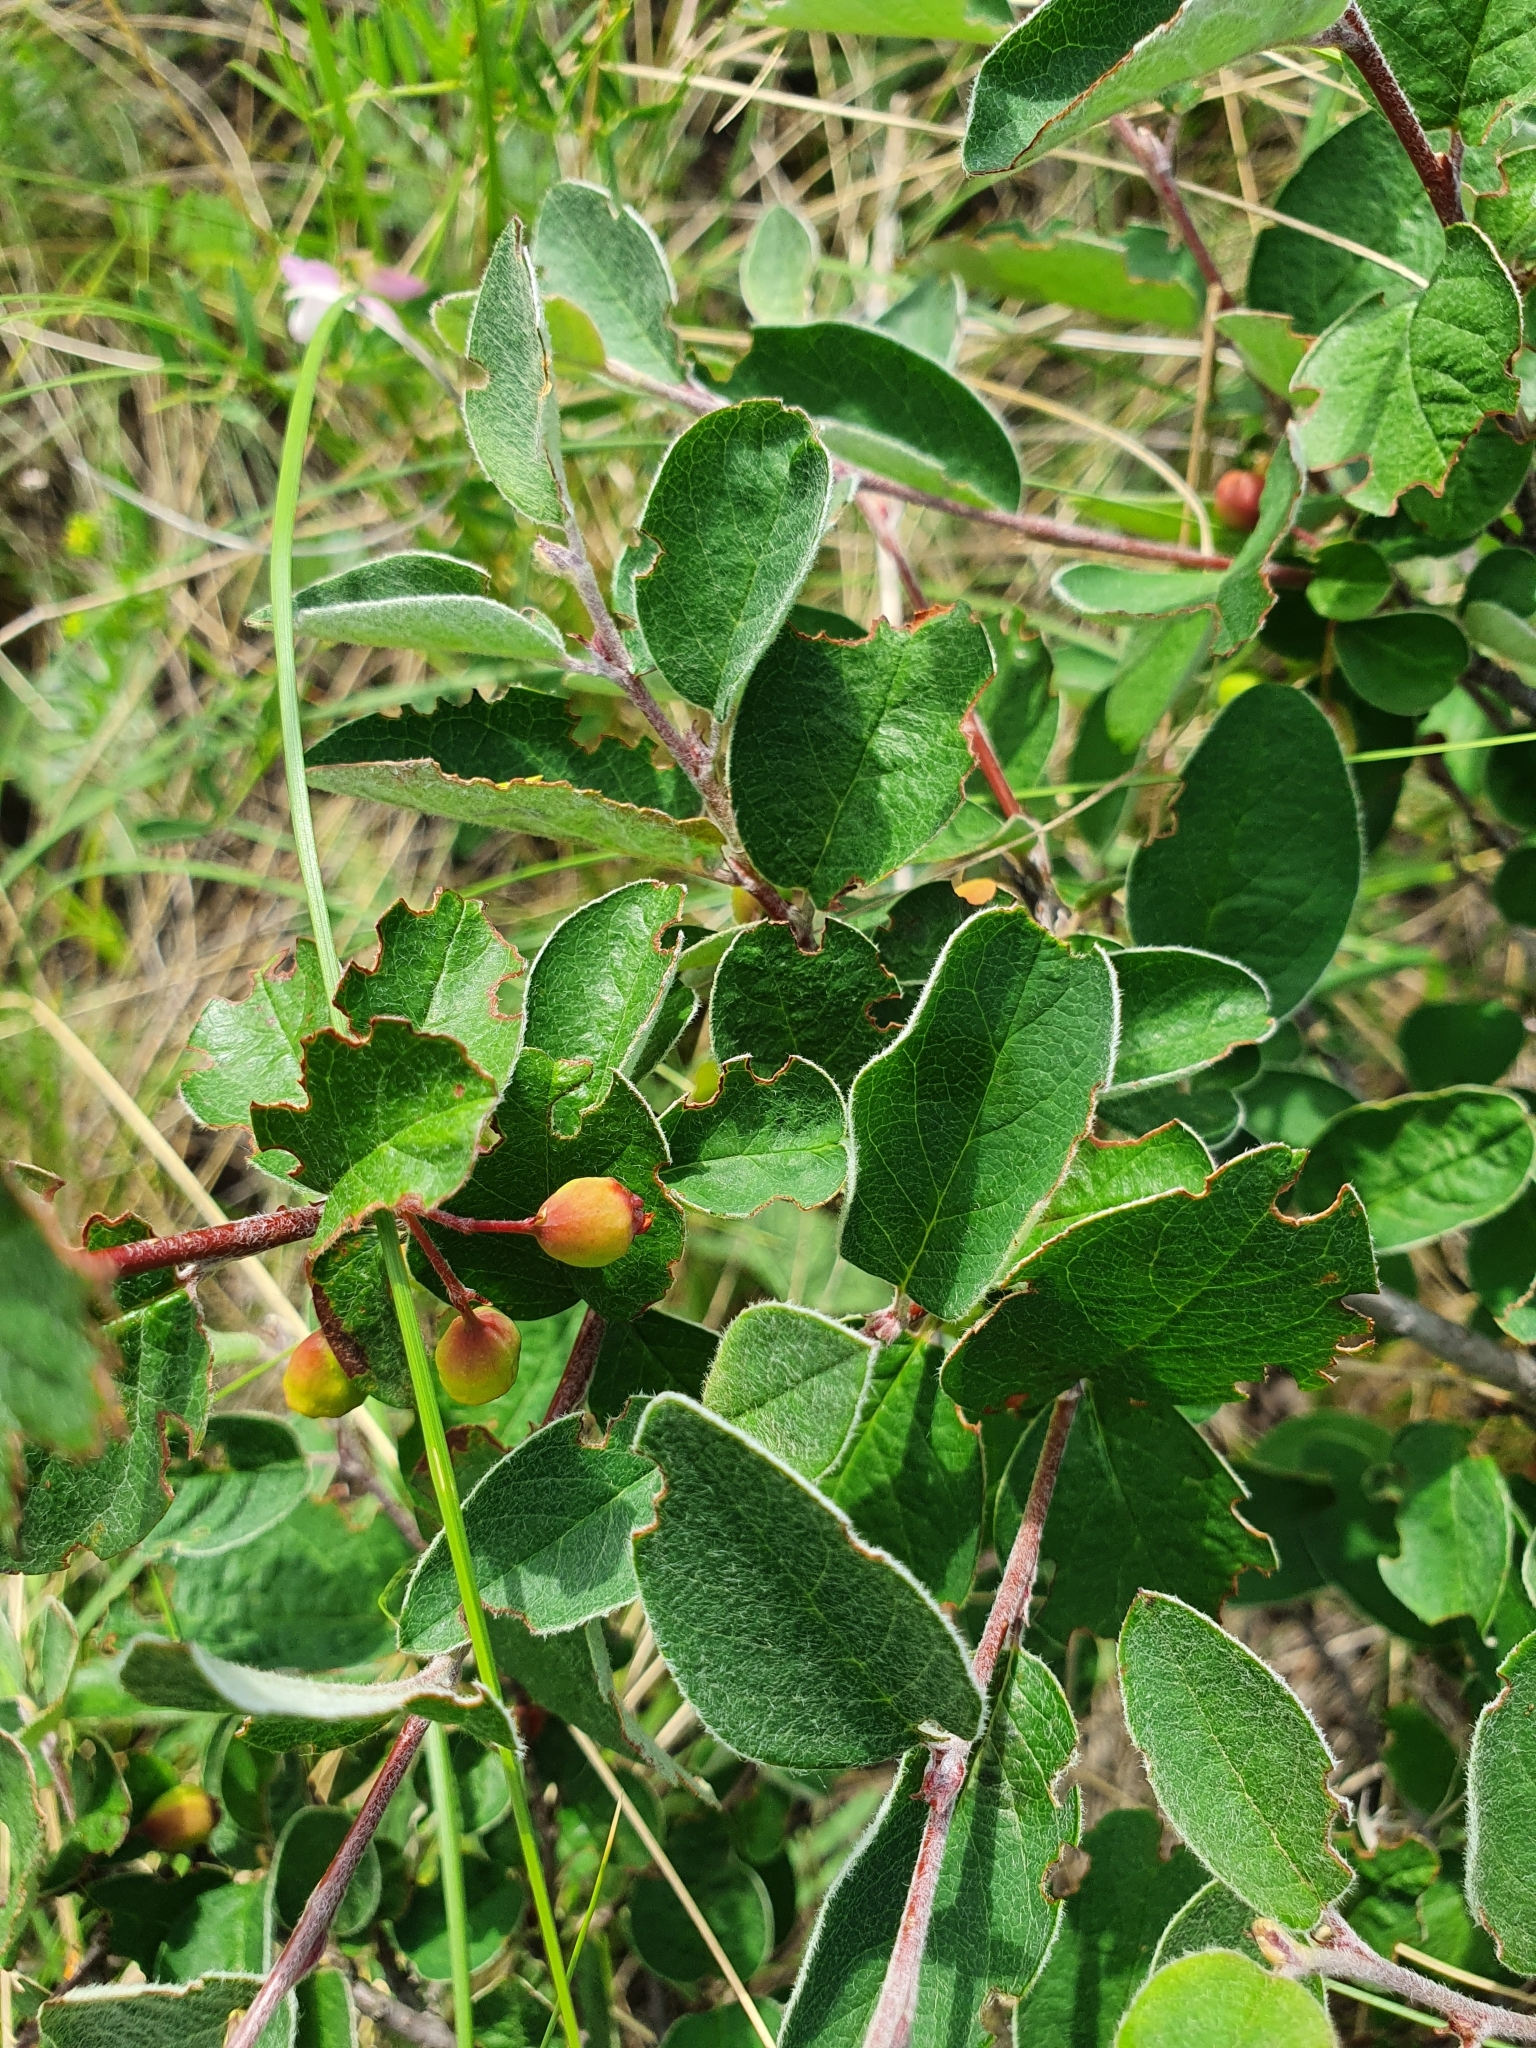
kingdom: Plantae
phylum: Tracheophyta
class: Magnoliopsida
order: Rosales
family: Rosaceae
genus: Cotoneaster
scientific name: Cotoneaster melanocarpus
